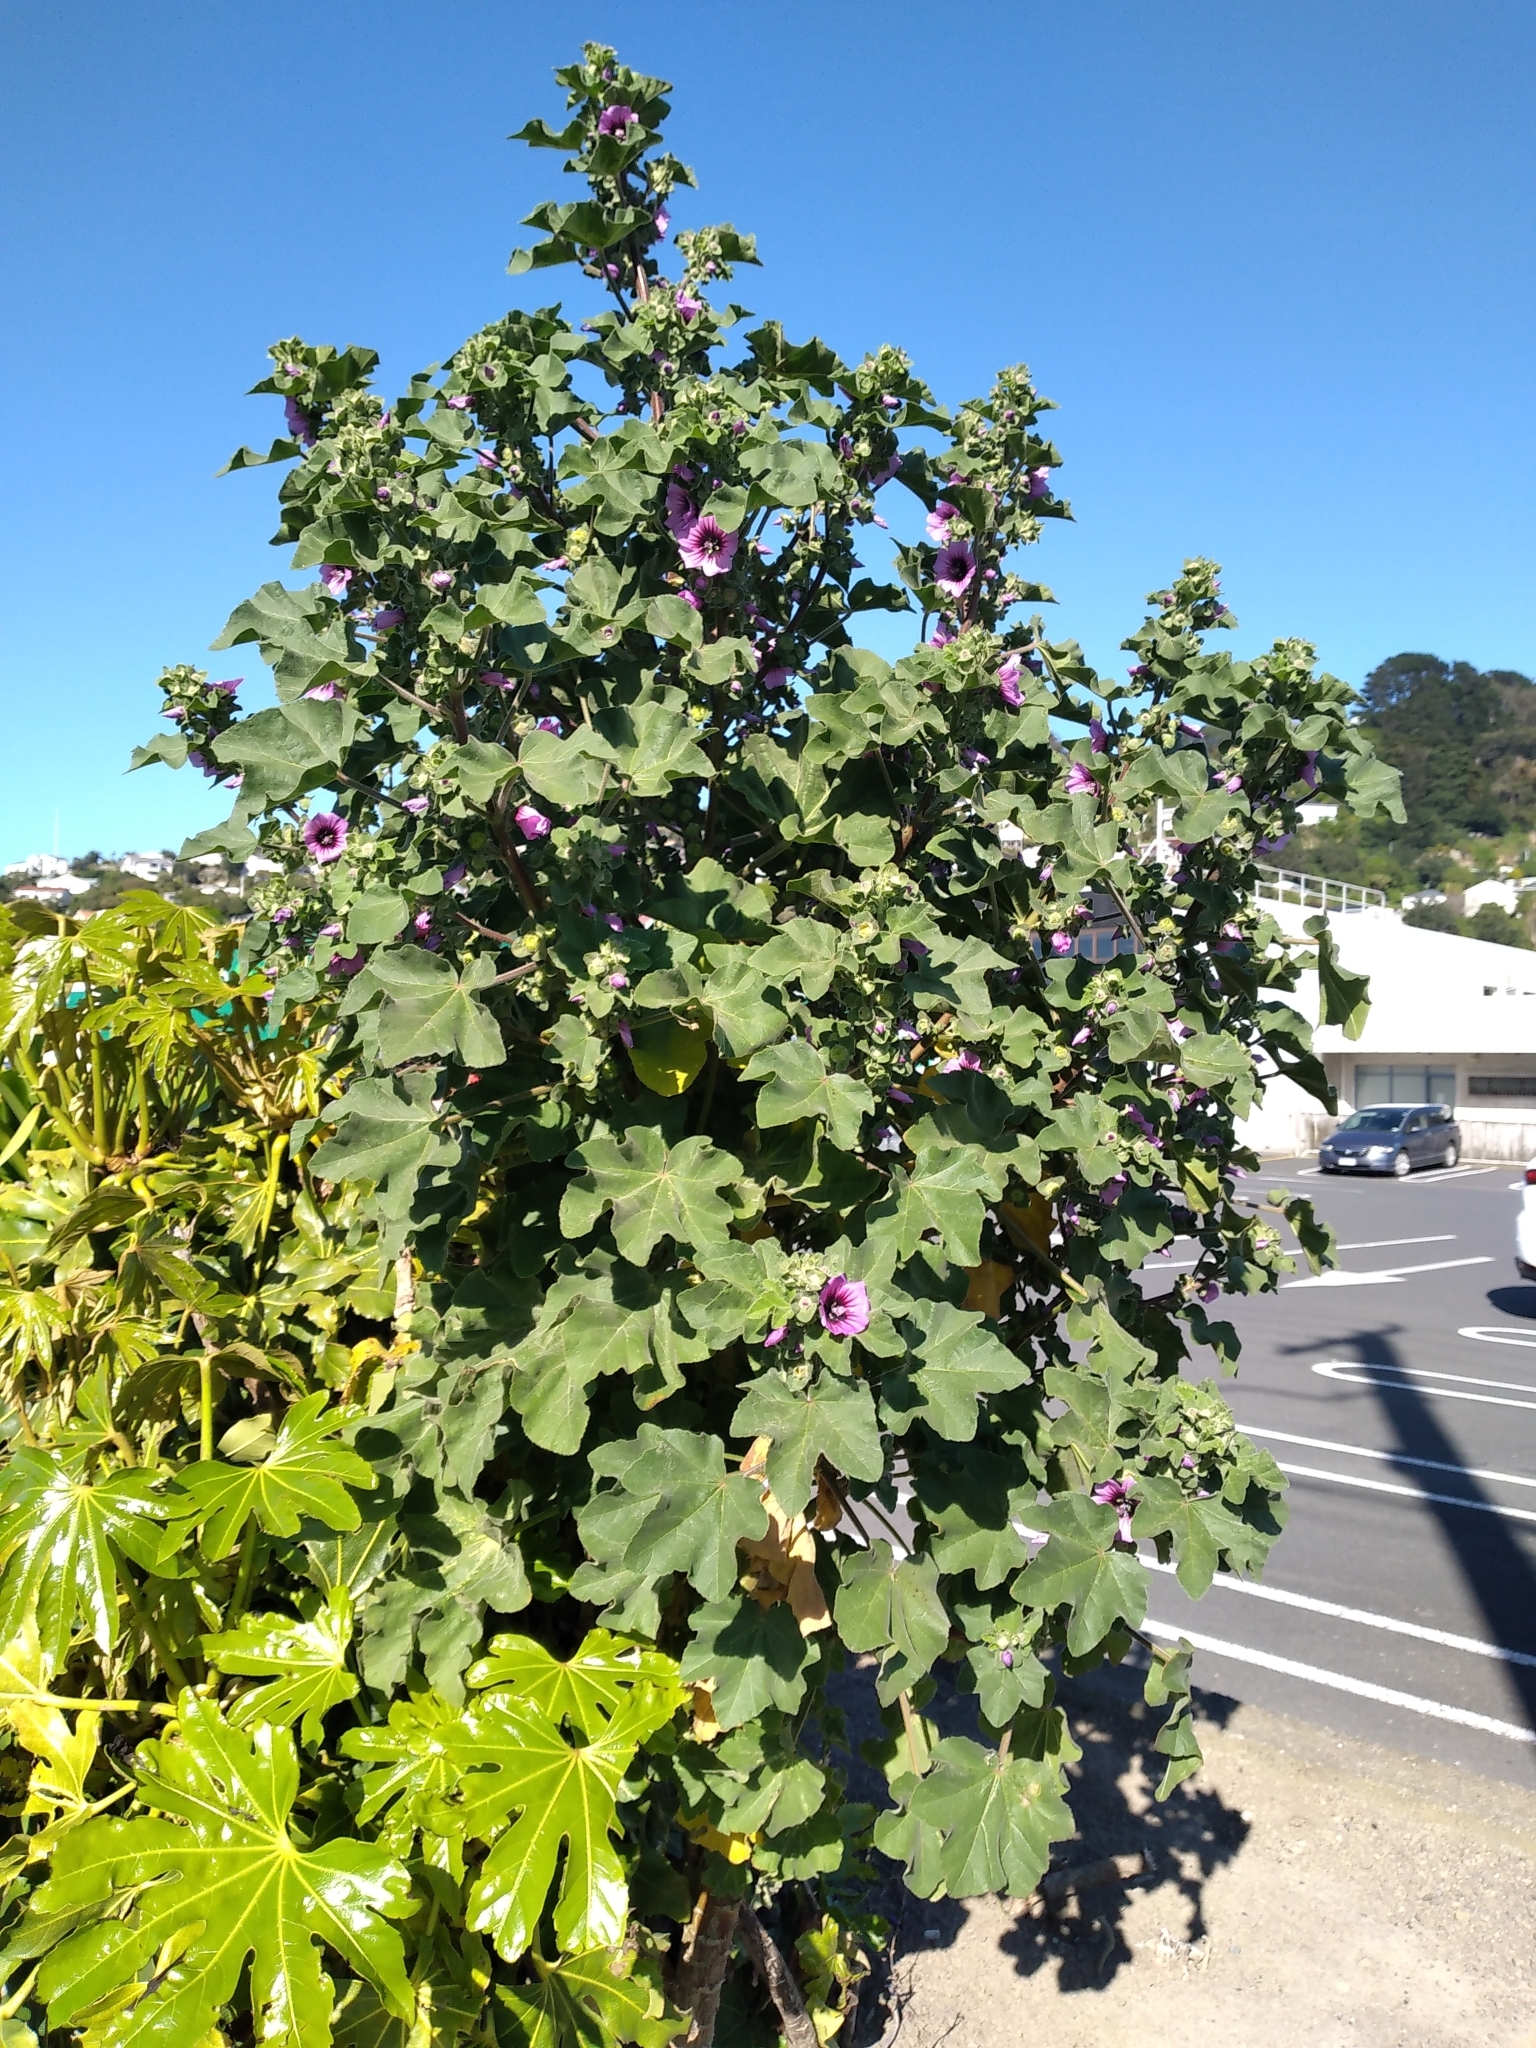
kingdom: Plantae
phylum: Tracheophyta
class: Magnoliopsida
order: Malvales
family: Malvaceae
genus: Malva
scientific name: Malva arborea
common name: Tree mallow
